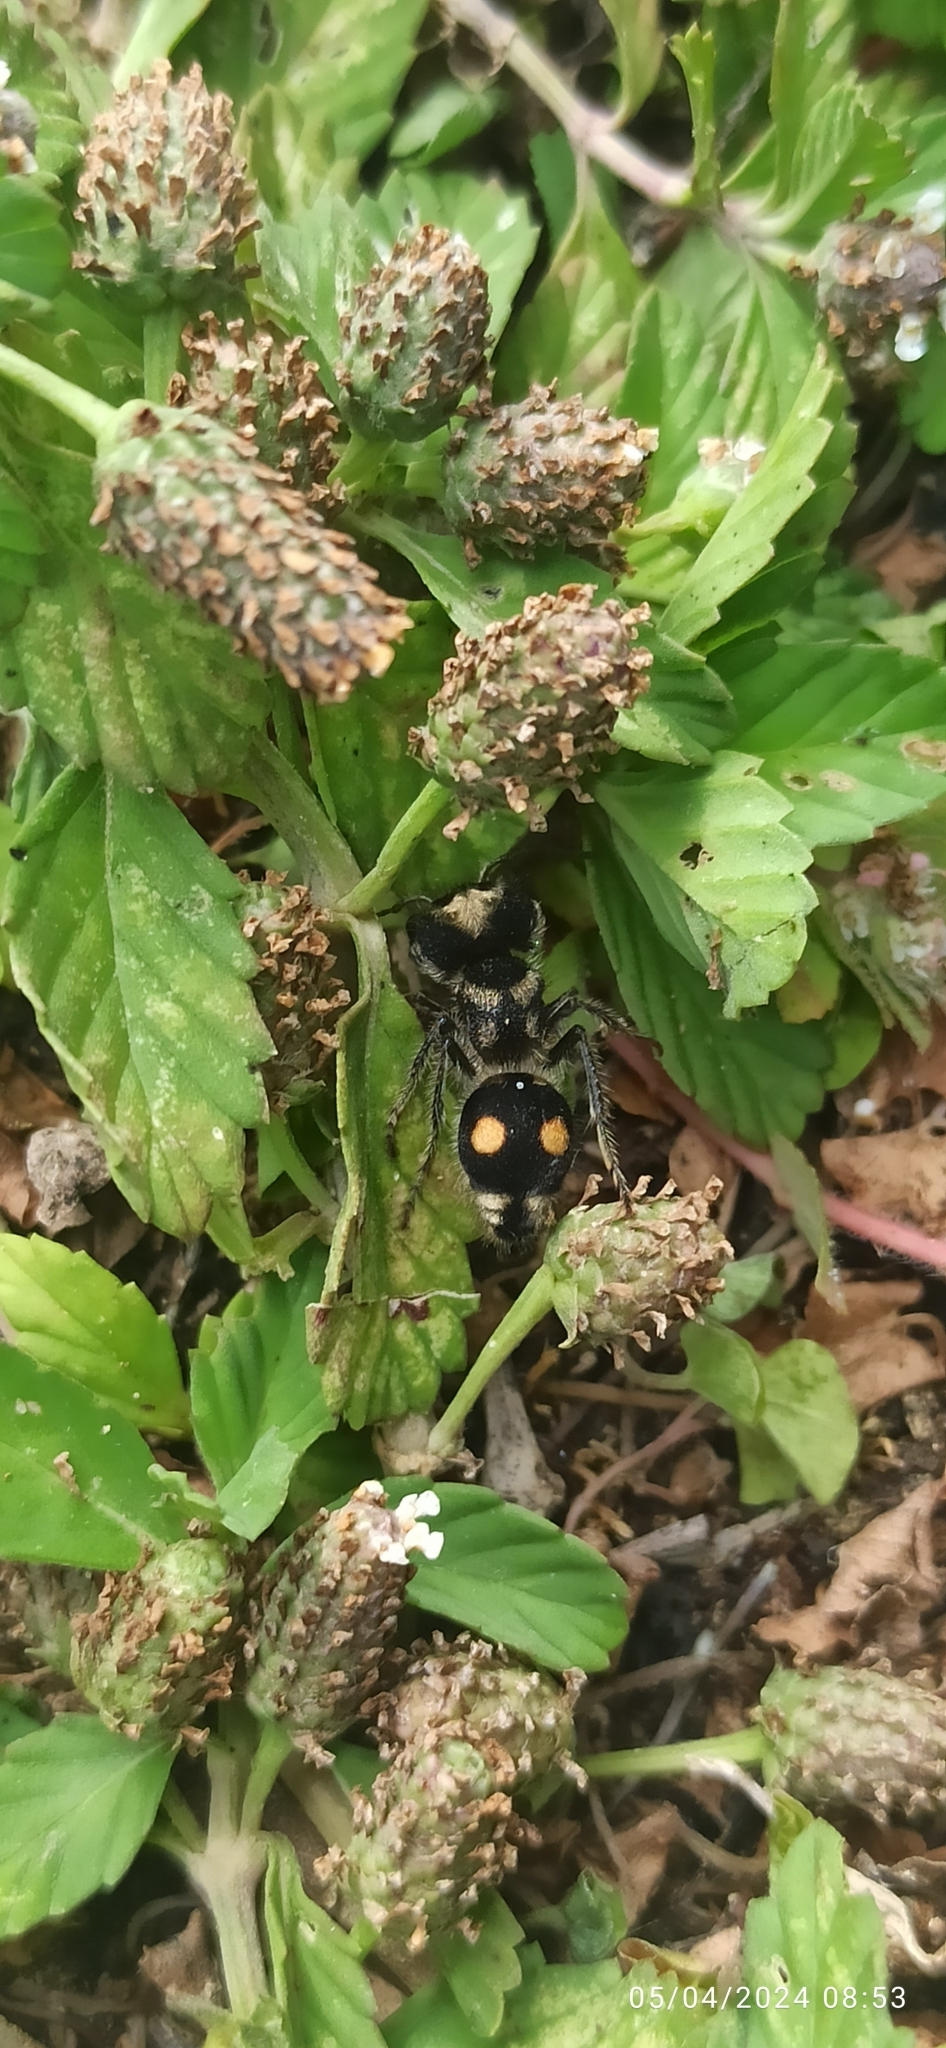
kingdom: Animalia
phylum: Arthropoda
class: Insecta
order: Hymenoptera
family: Mutillidae
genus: Hoplognathoca
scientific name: Hoplognathoca
